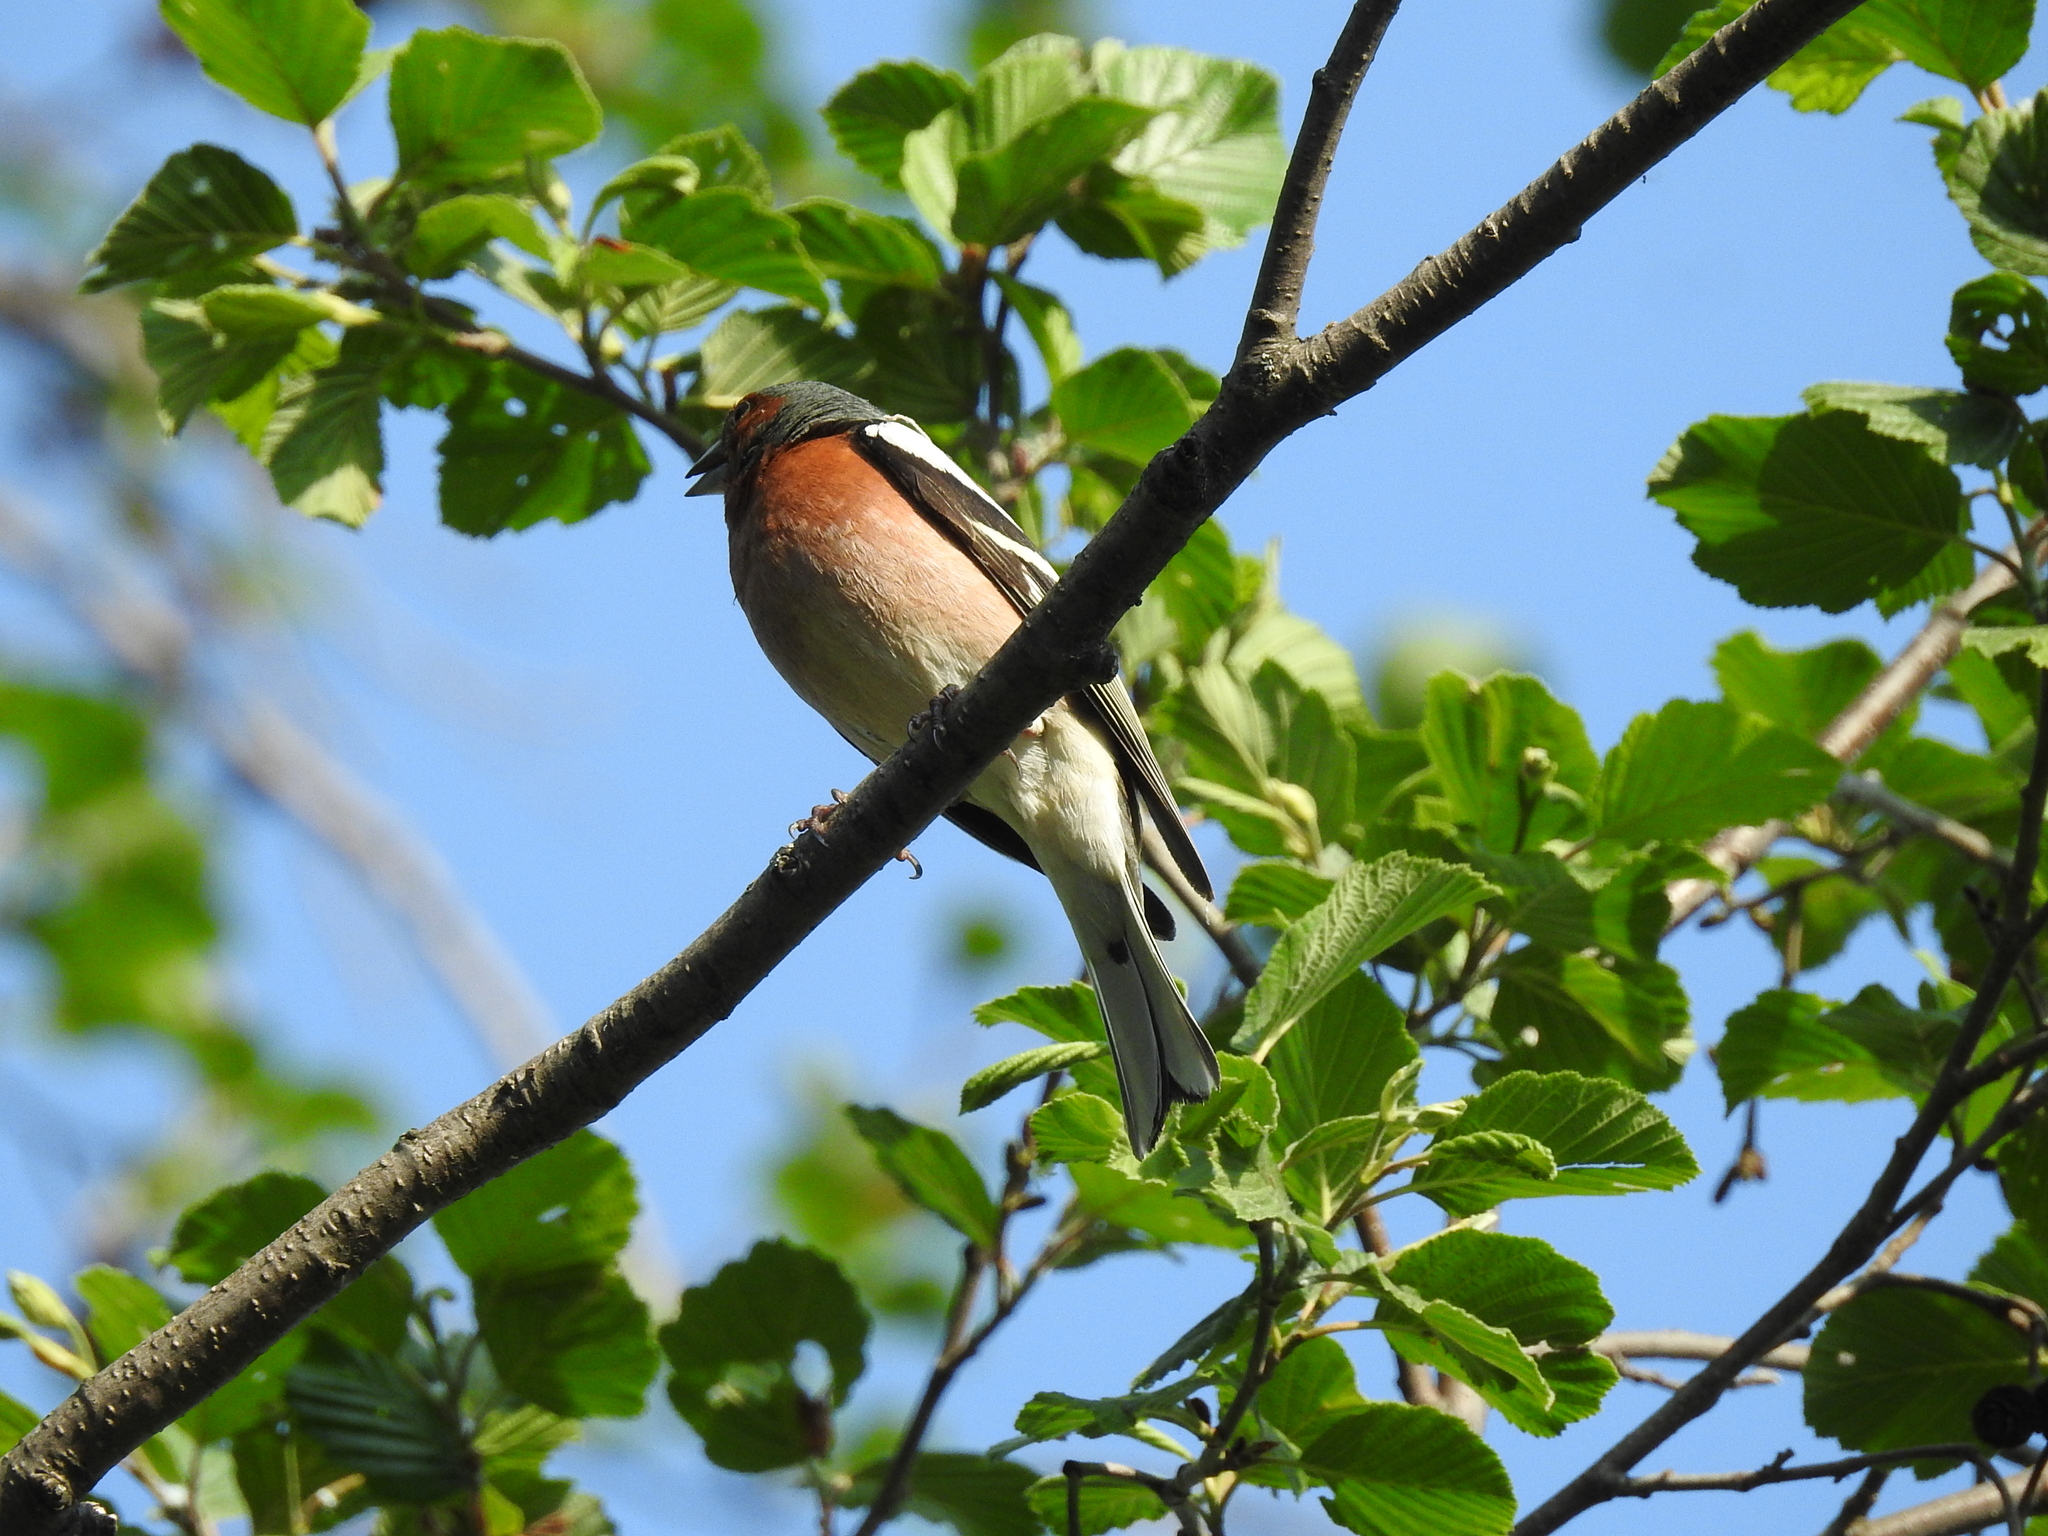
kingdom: Animalia
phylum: Chordata
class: Aves
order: Passeriformes
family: Fringillidae
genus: Fringilla
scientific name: Fringilla coelebs
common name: Common chaffinch
